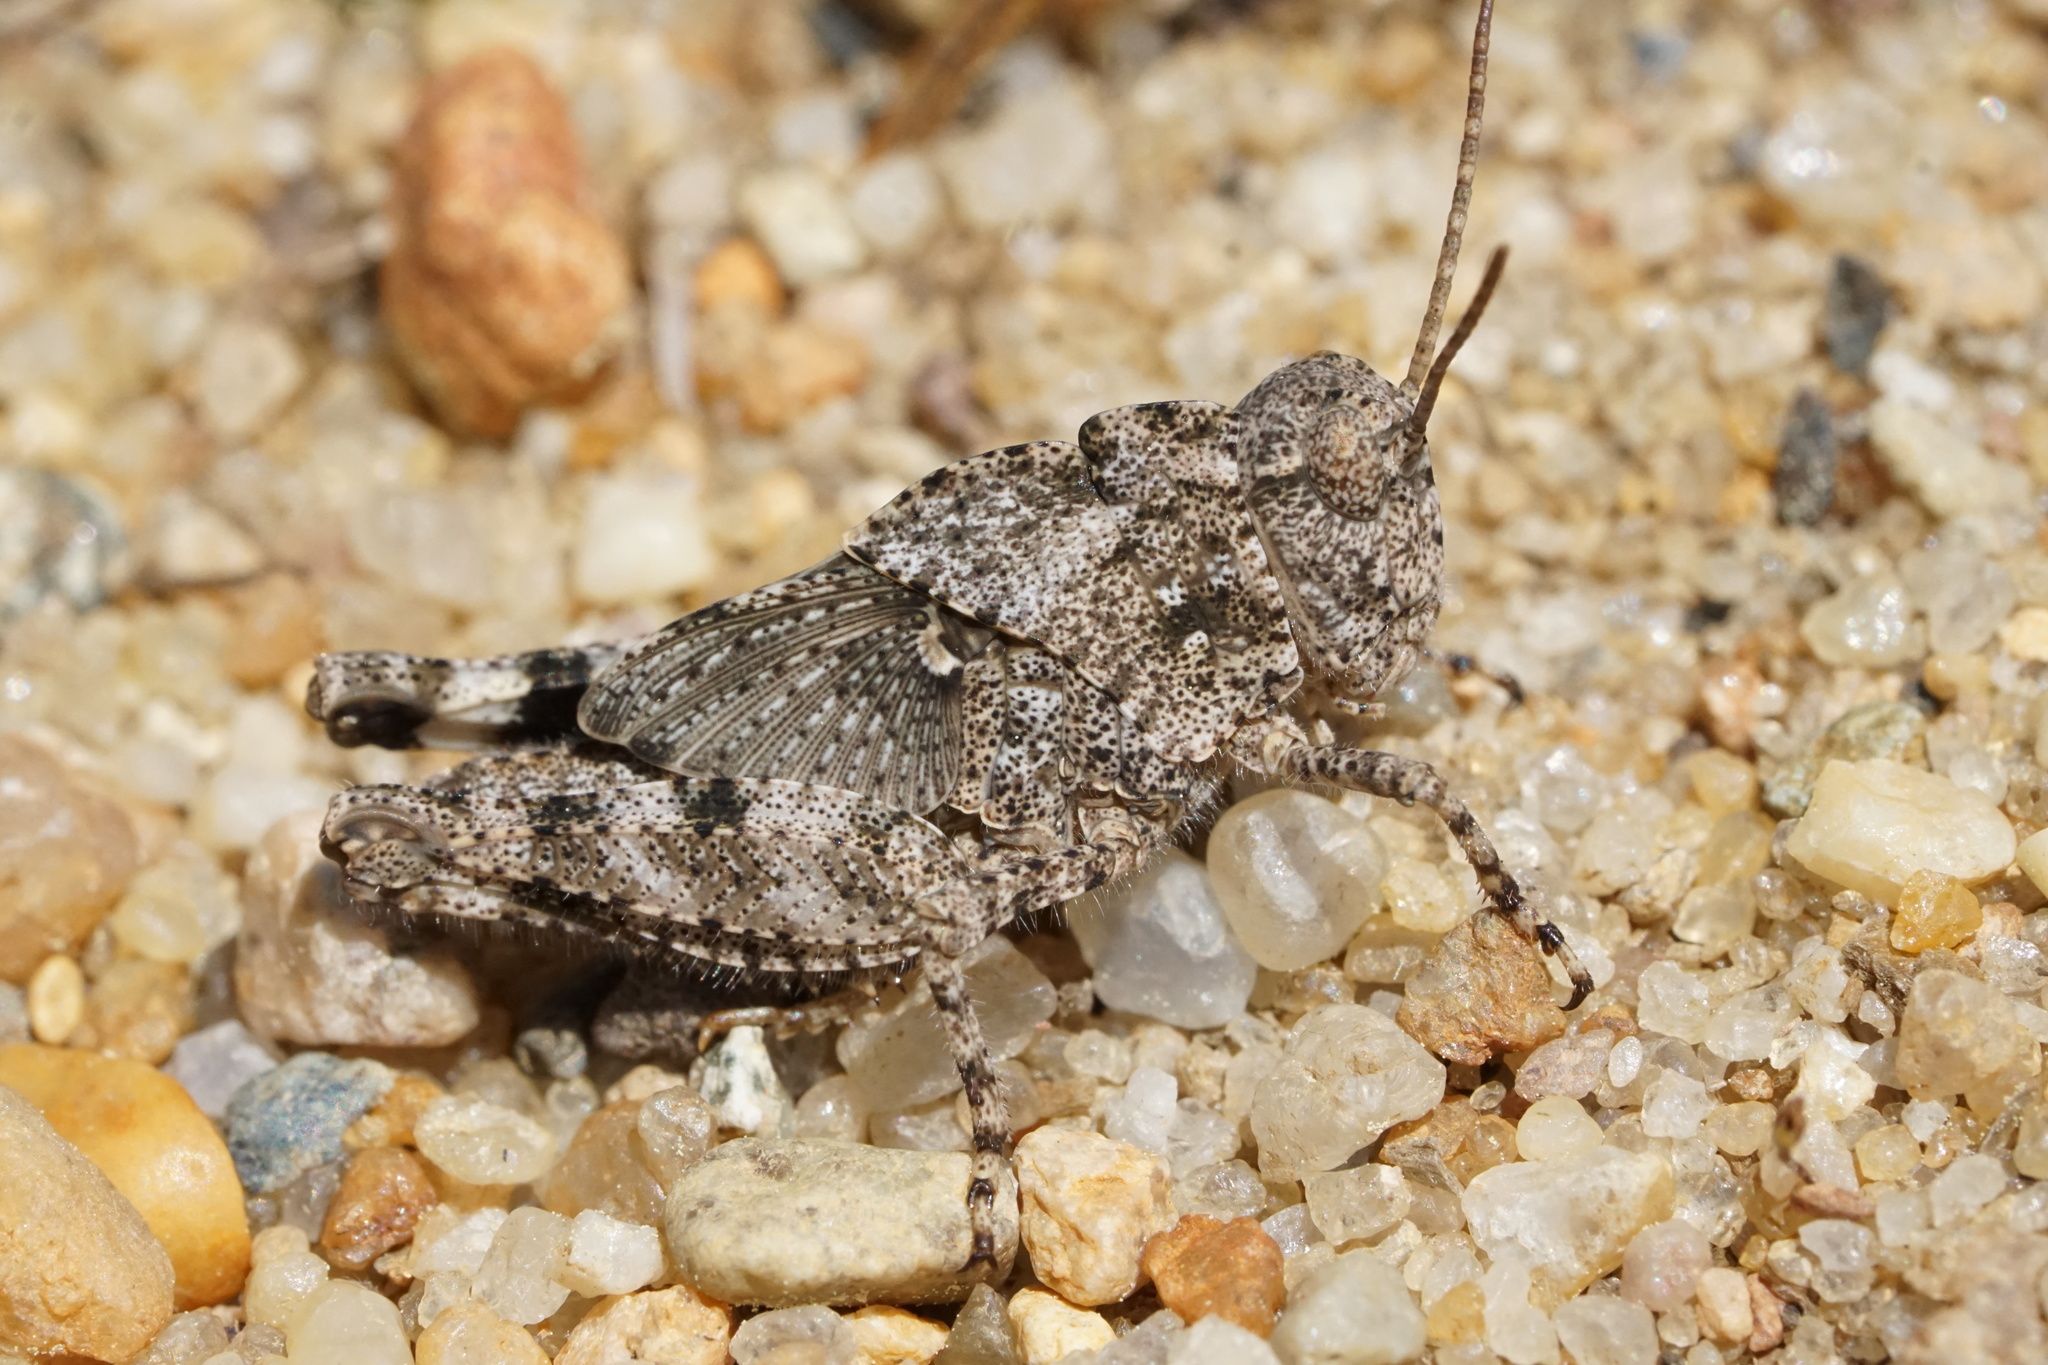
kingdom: Animalia
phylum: Arthropoda
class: Insecta
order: Orthoptera
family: Acrididae
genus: Dissosteira
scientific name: Dissosteira carolina
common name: Carolina grasshopper
